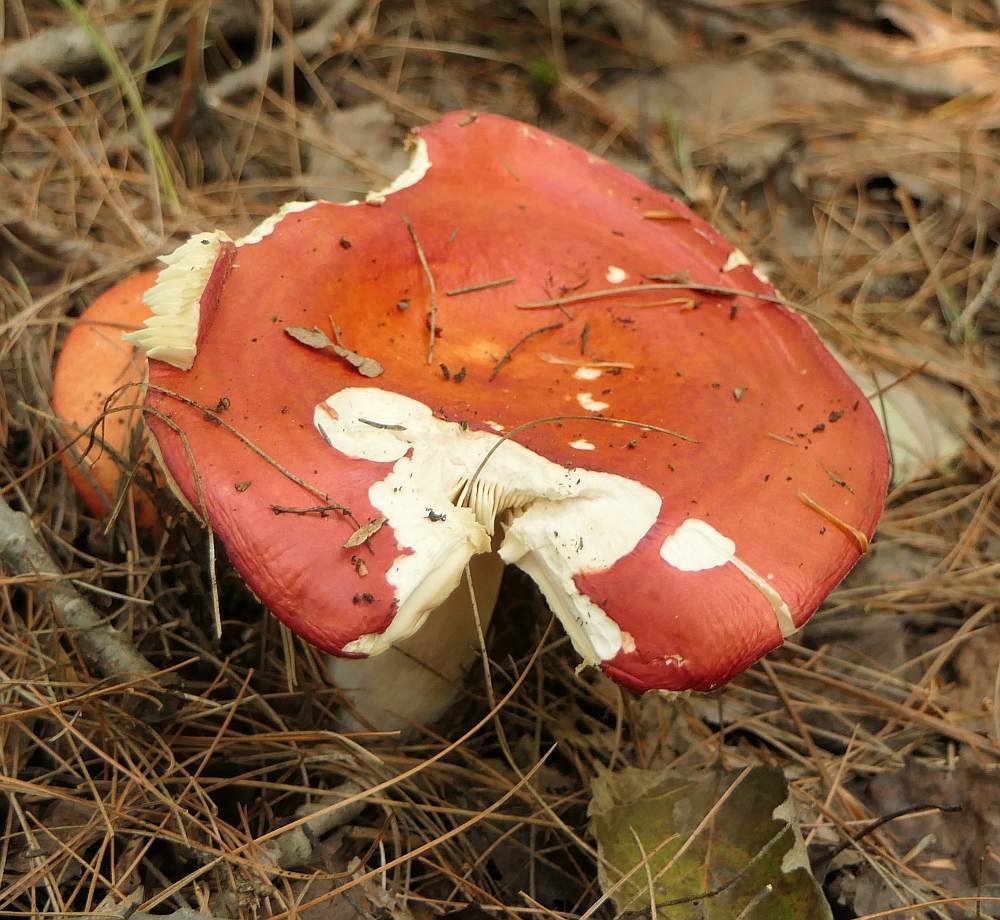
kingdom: Fungi
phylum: Basidiomycota
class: Agaricomycetes
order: Russulales
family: Russulaceae
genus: Russula
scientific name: Russula
